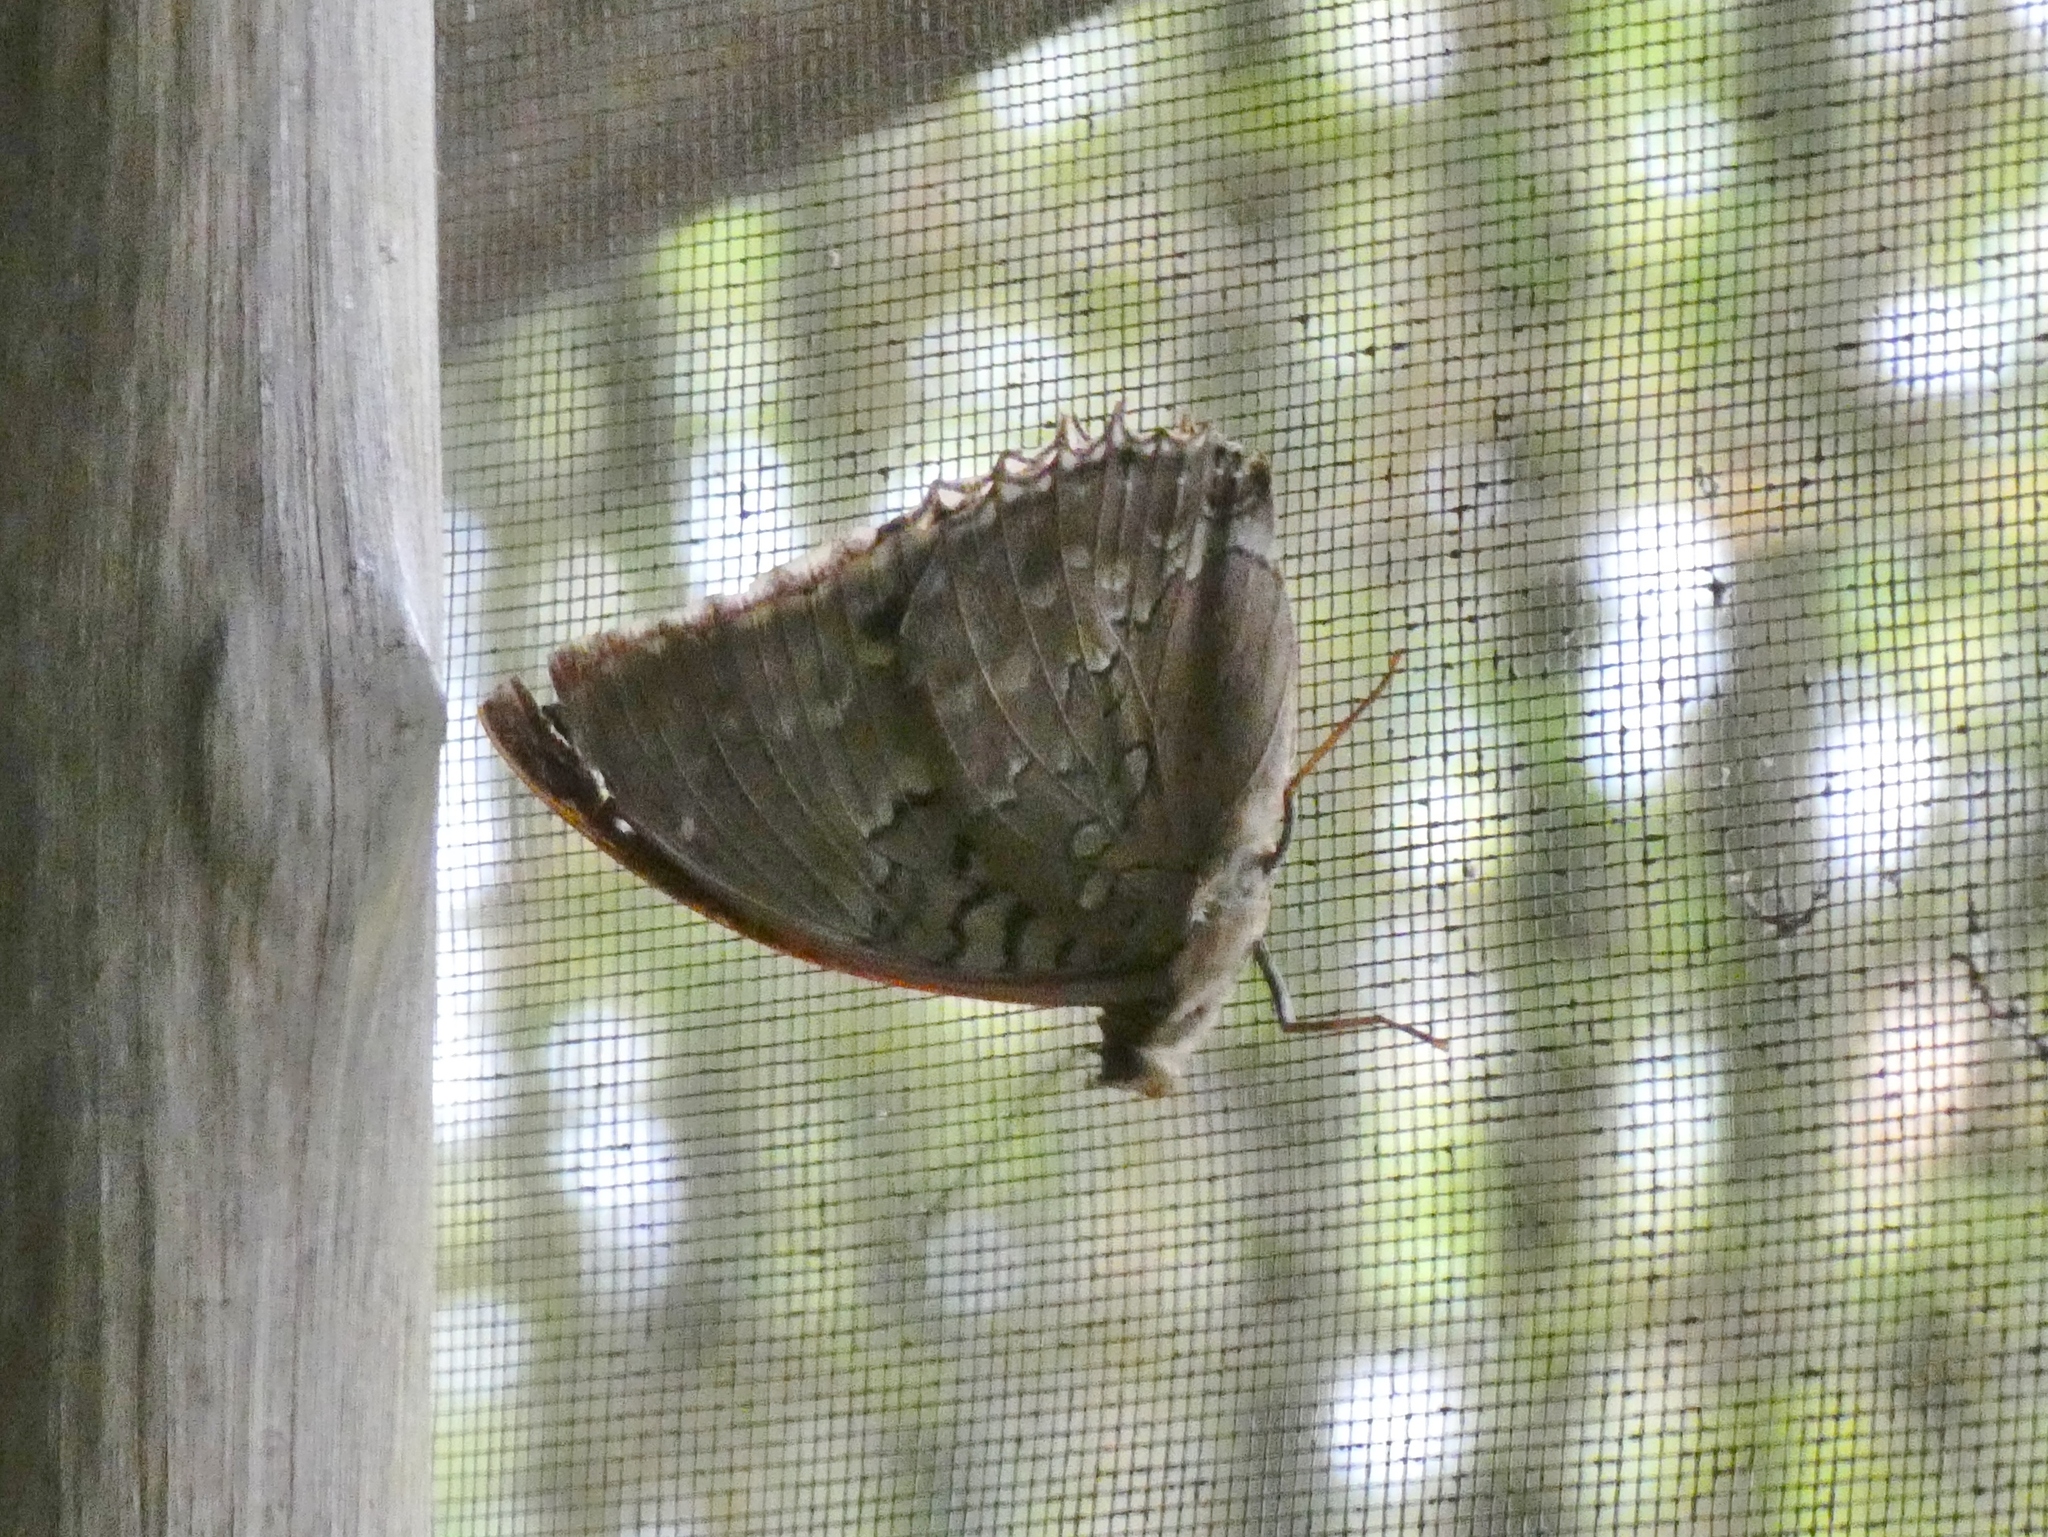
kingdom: Animalia
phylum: Arthropoda
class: Insecta
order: Lepidoptera
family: Nymphalidae
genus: Charaxes
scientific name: Charaxes smaragdalis
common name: Western blue charaxes
